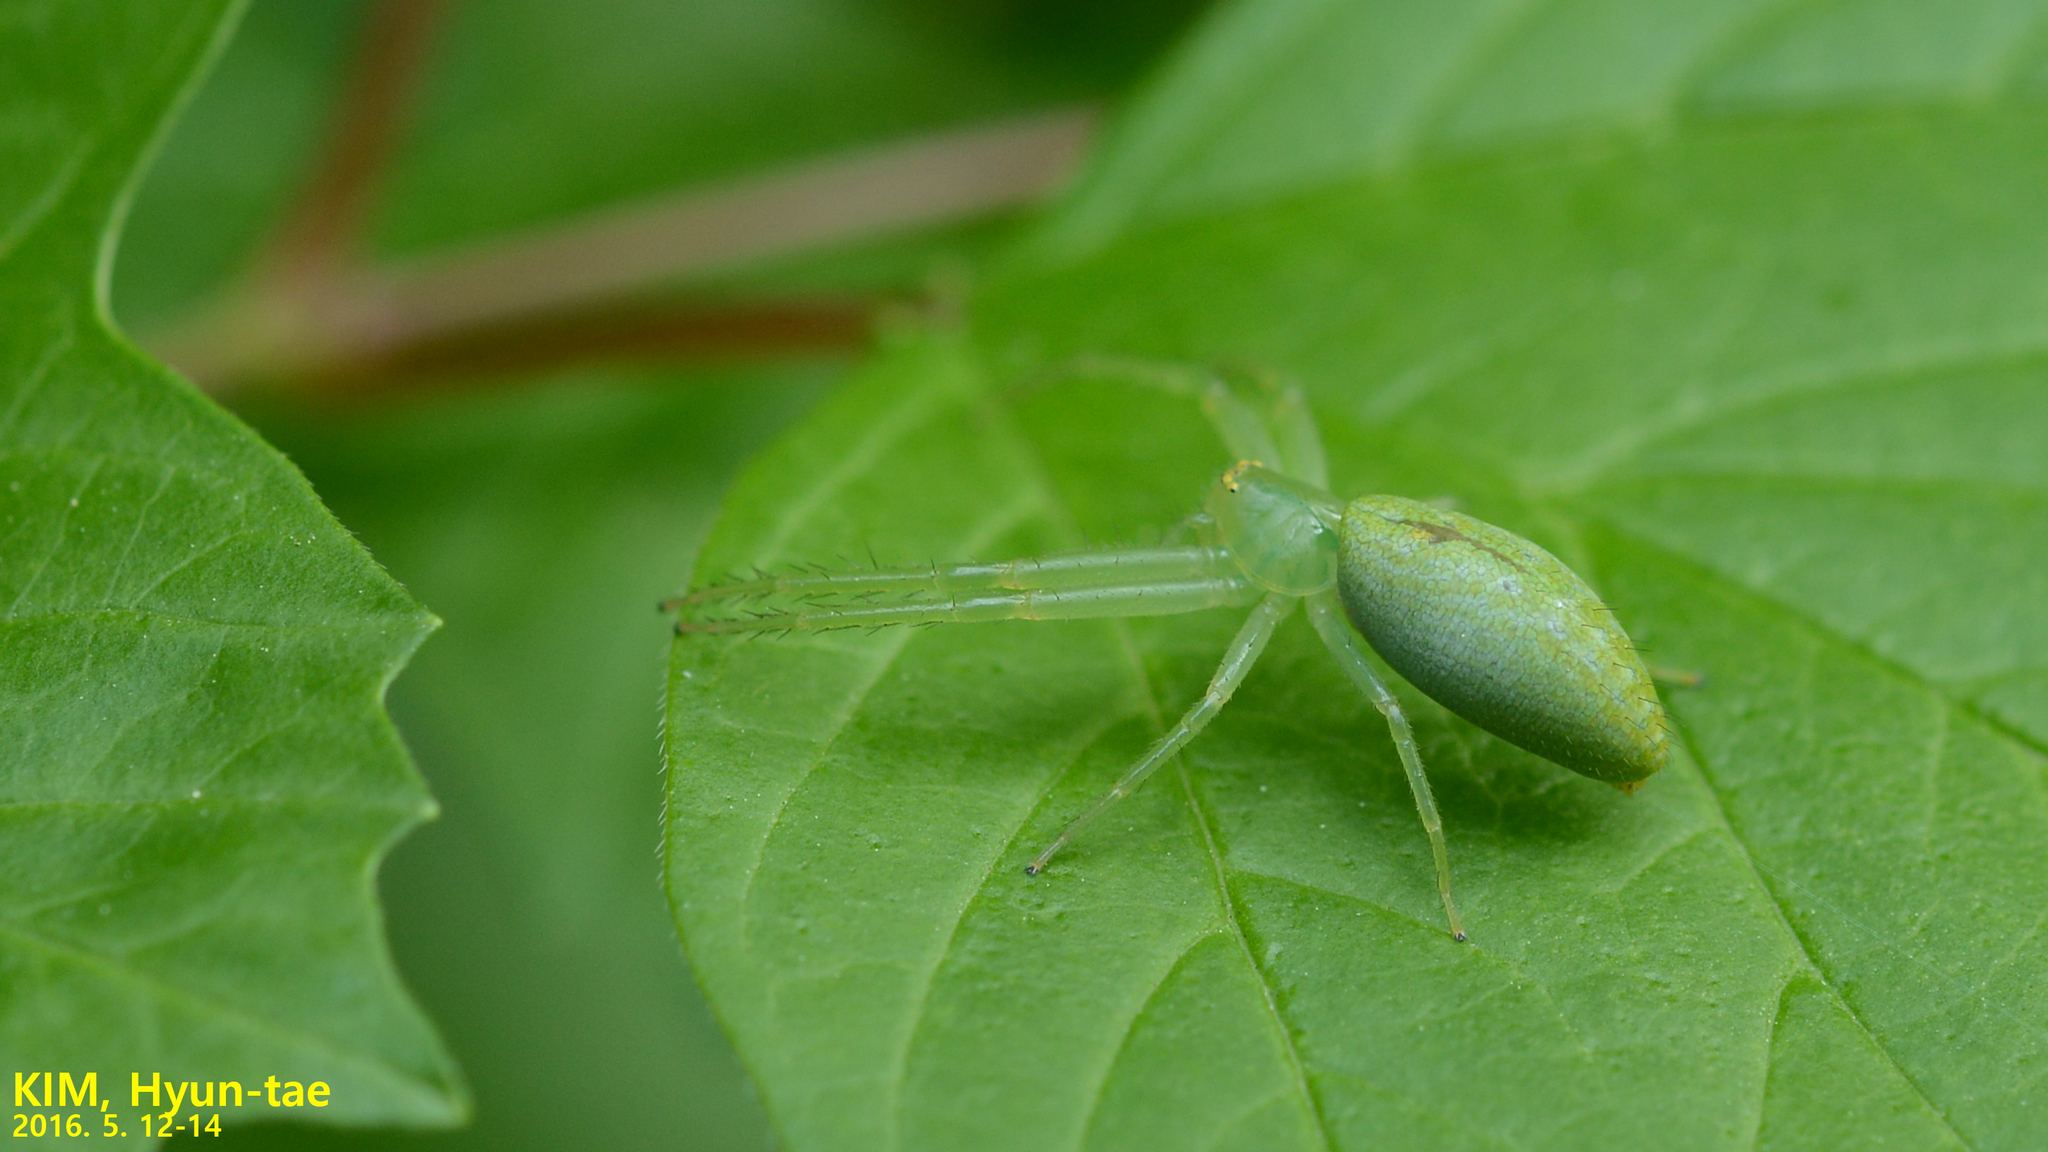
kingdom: Animalia
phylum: Arthropoda
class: Arachnida
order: Araneae
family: Thomisidae
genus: Oxytate
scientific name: Oxytate striatipes
